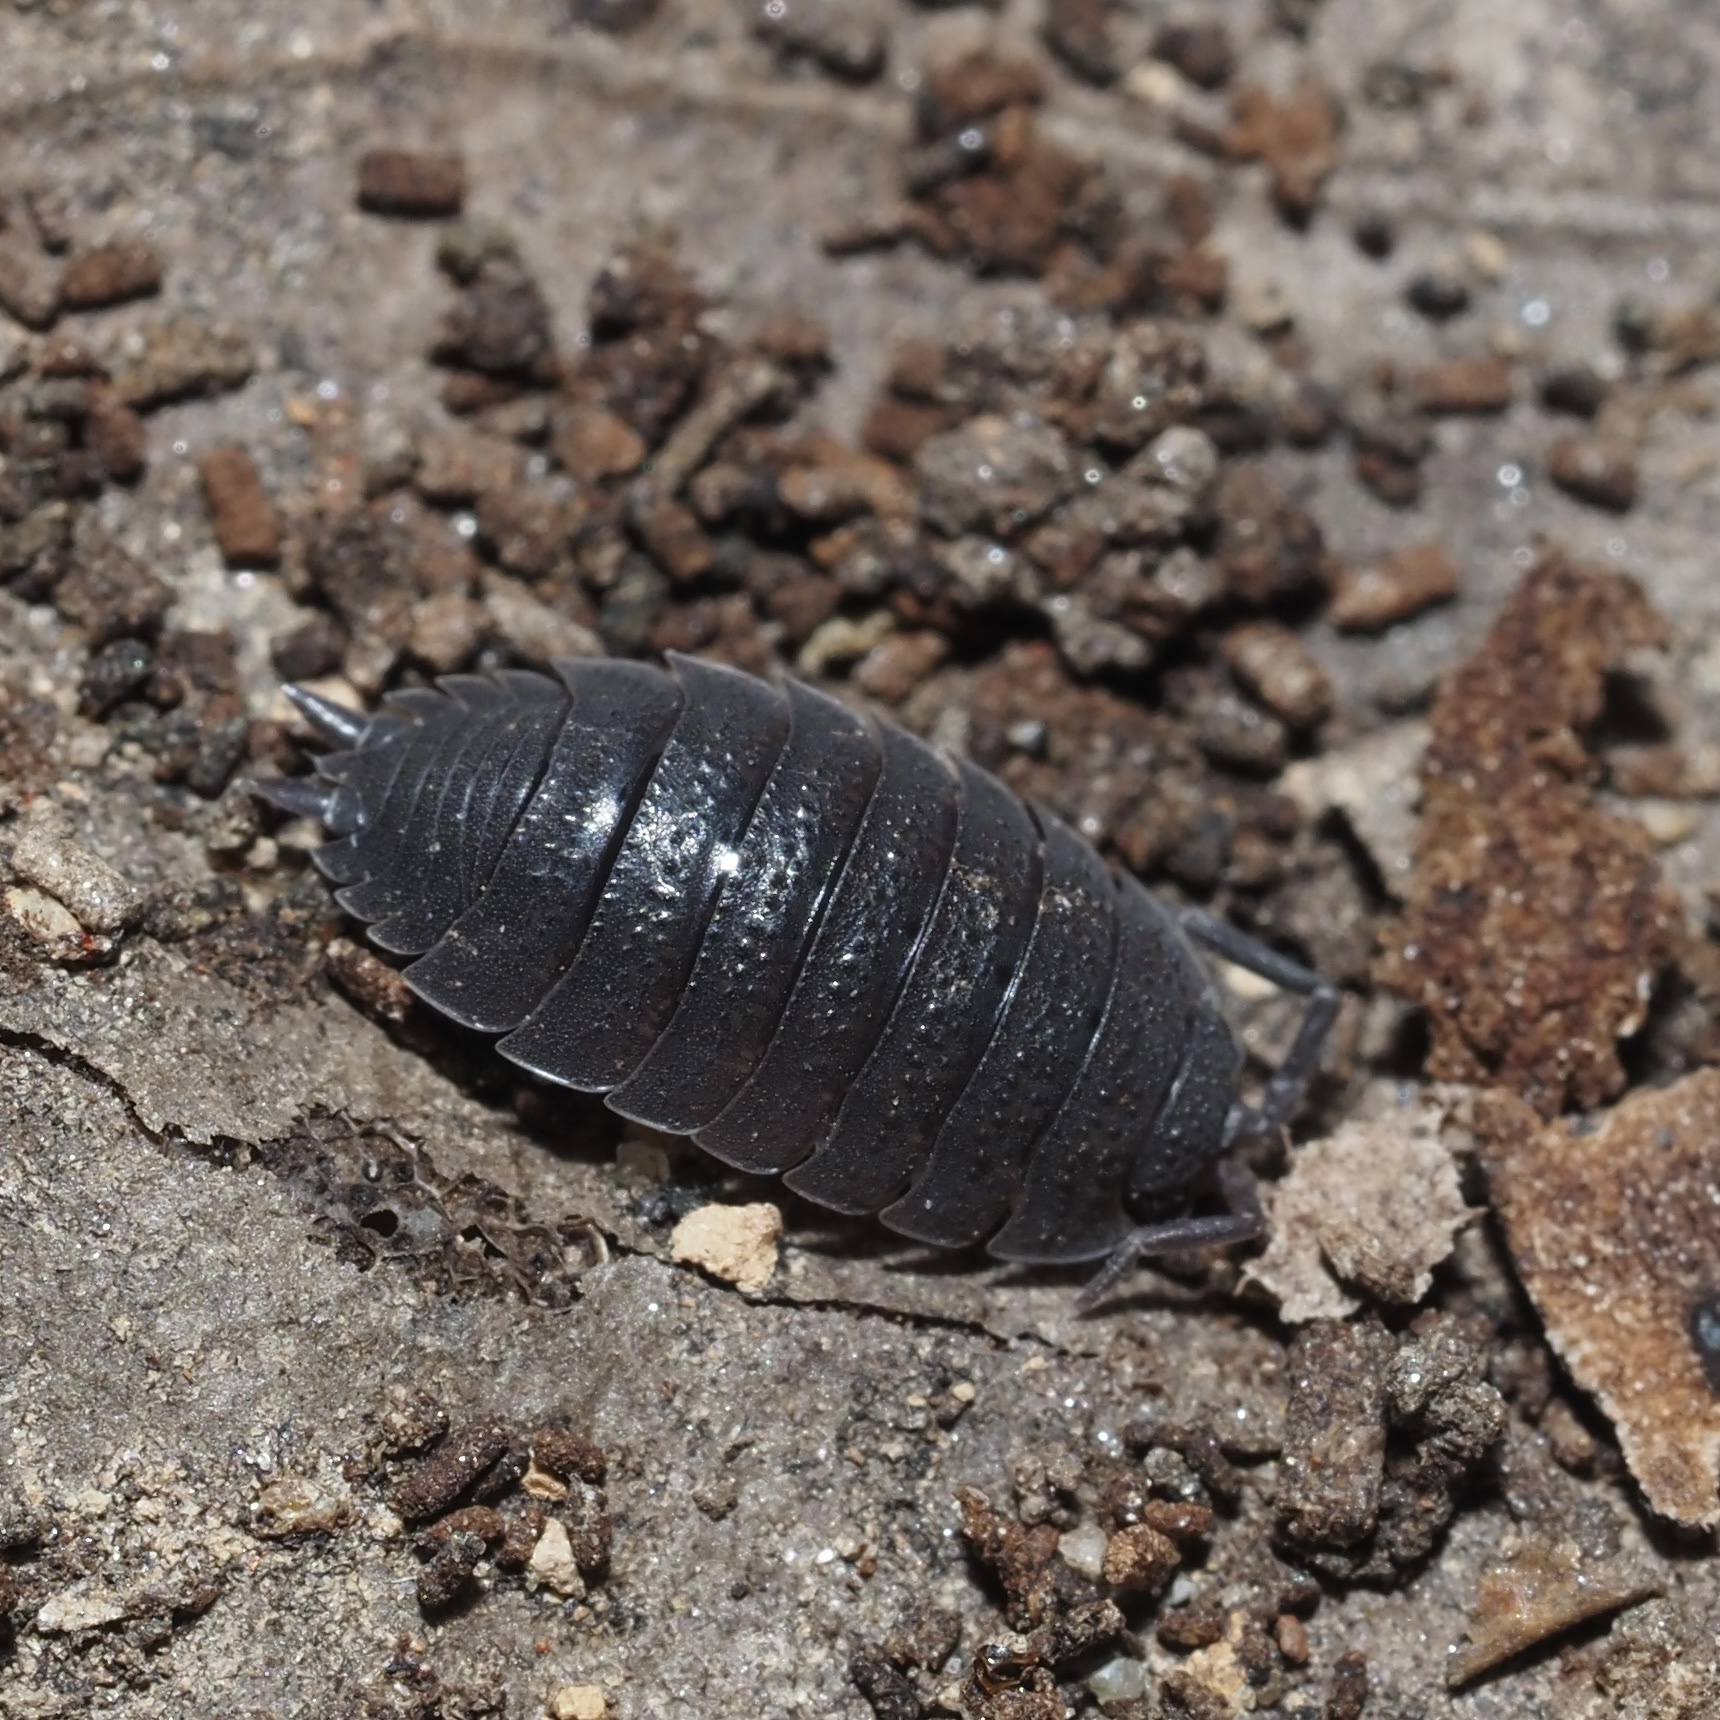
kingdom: Animalia
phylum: Arthropoda
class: Malacostraca
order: Isopoda
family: Porcellionidae
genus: Porcellio
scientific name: Porcellio scaber
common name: Common rough woodlouse
